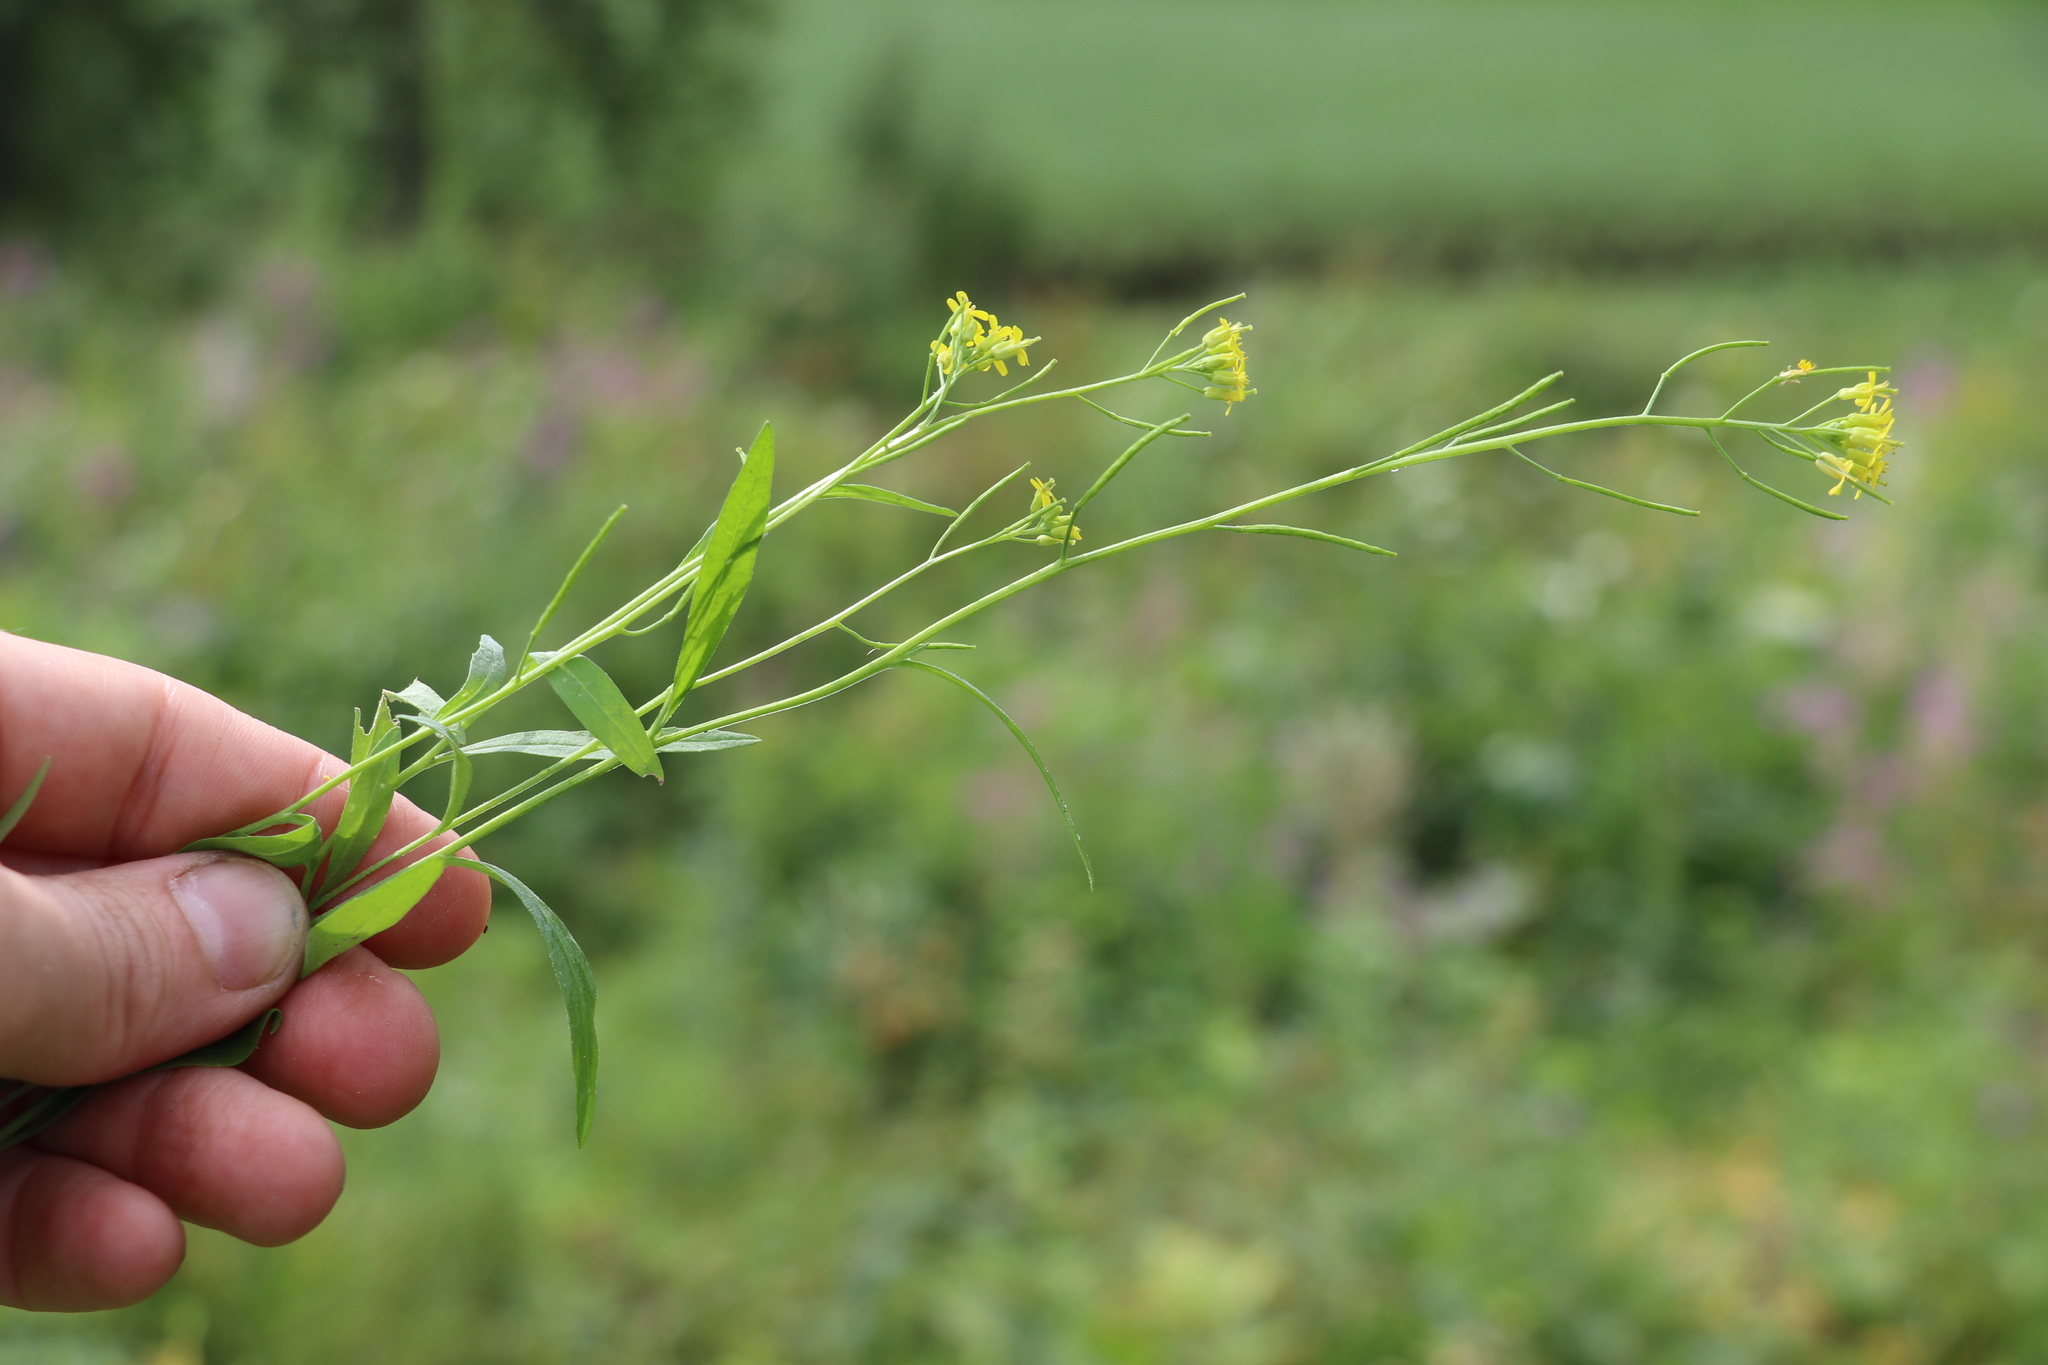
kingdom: Plantae
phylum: Tracheophyta
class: Magnoliopsida
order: Brassicales
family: Brassicaceae
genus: Erysimum
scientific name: Erysimum cheiranthoides
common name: Treacle mustard
